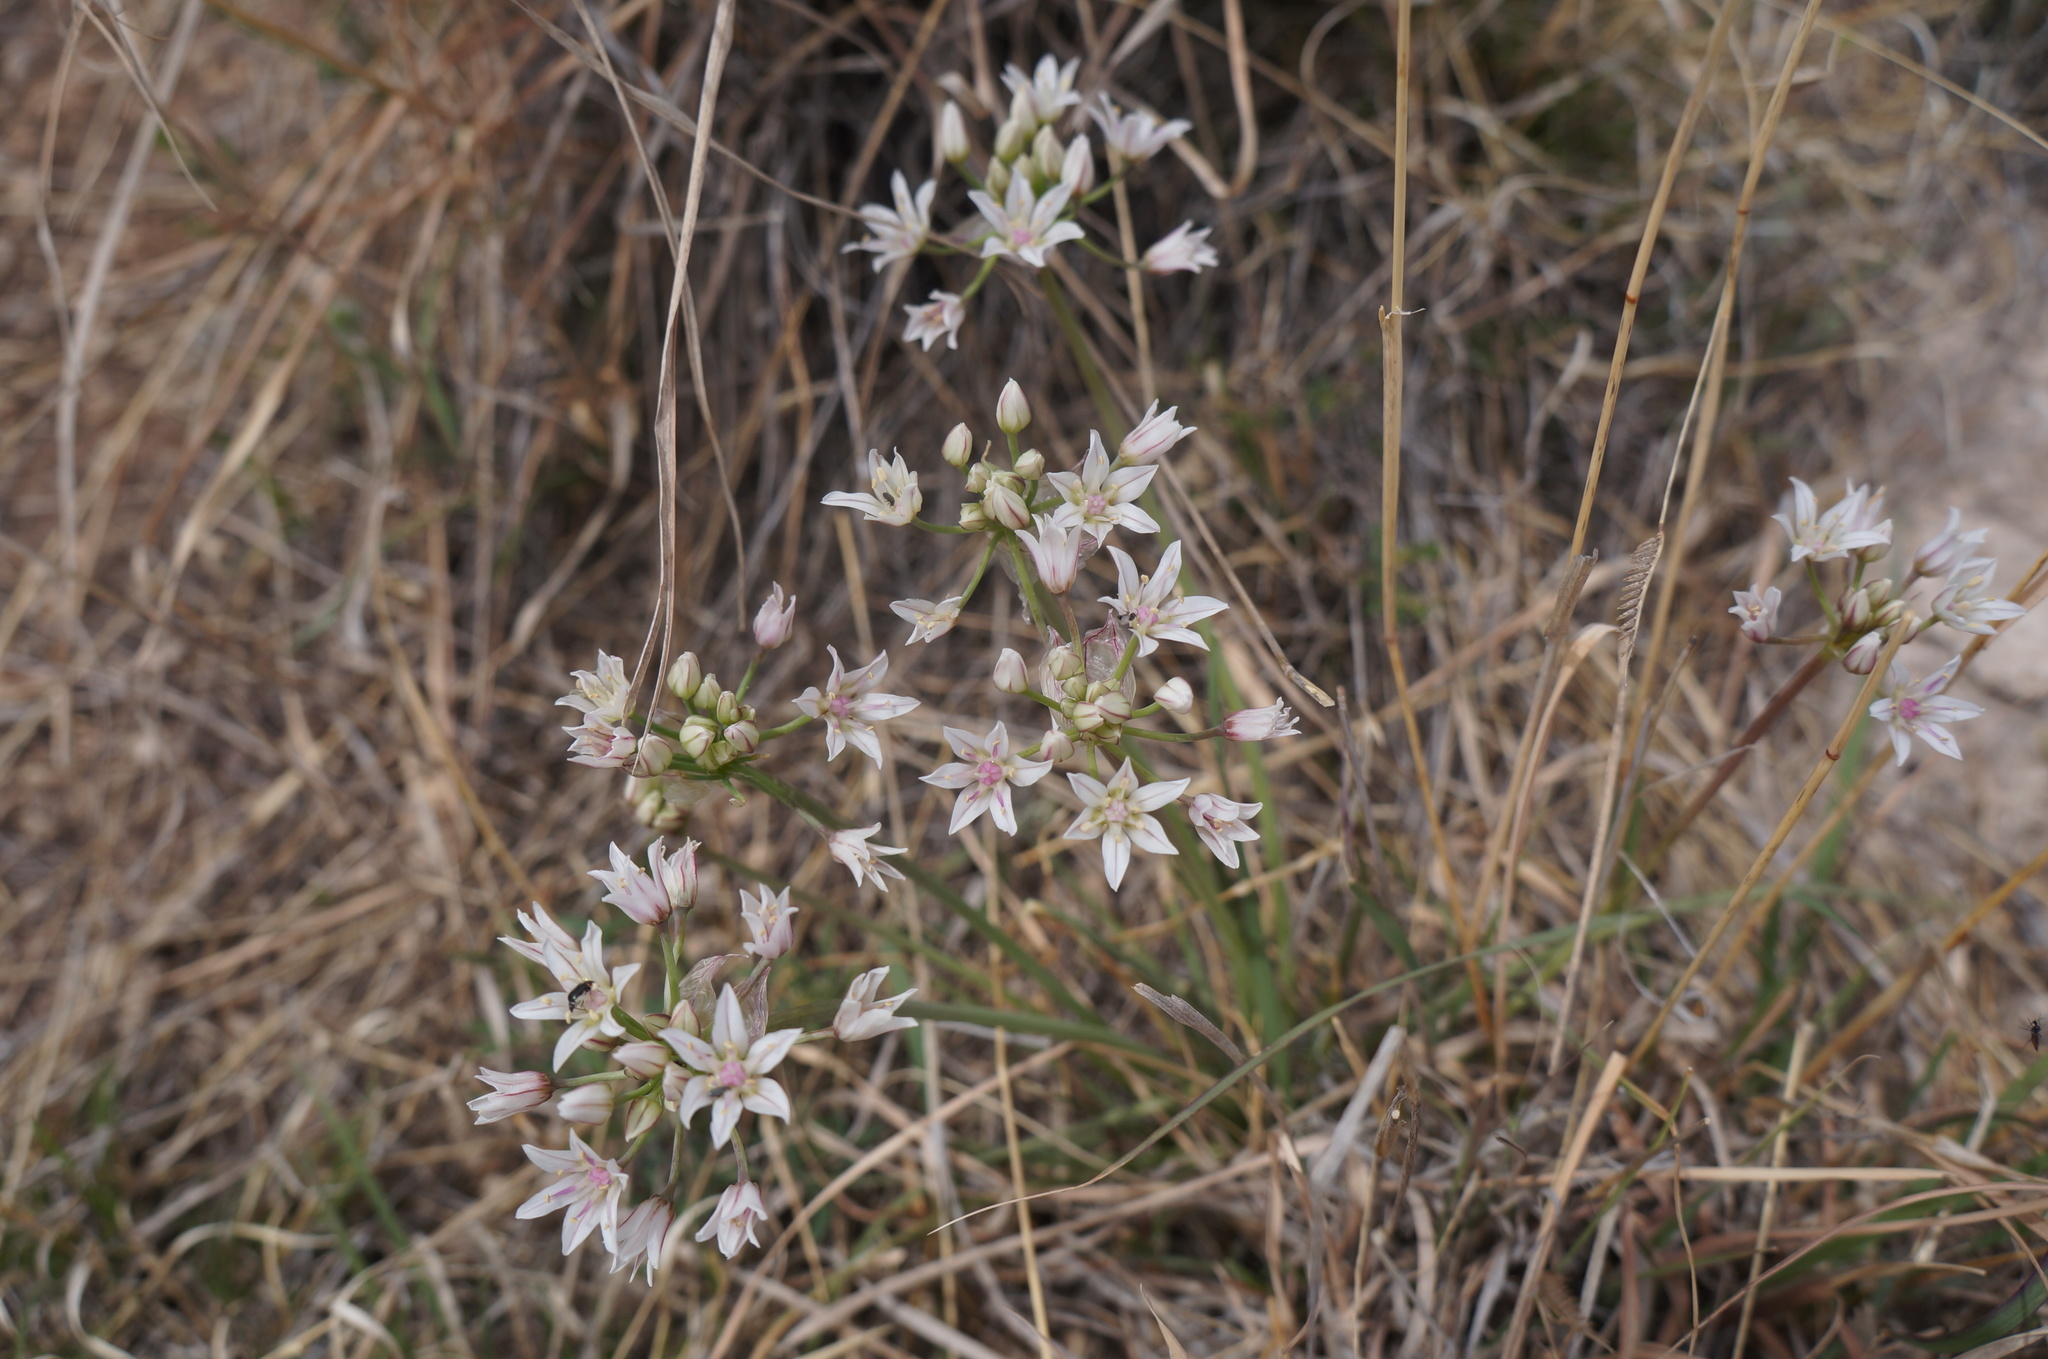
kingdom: Plantae
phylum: Tracheophyta
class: Liliopsida
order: Asparagales
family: Amaryllidaceae
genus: Allium
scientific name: Allium drummondii
